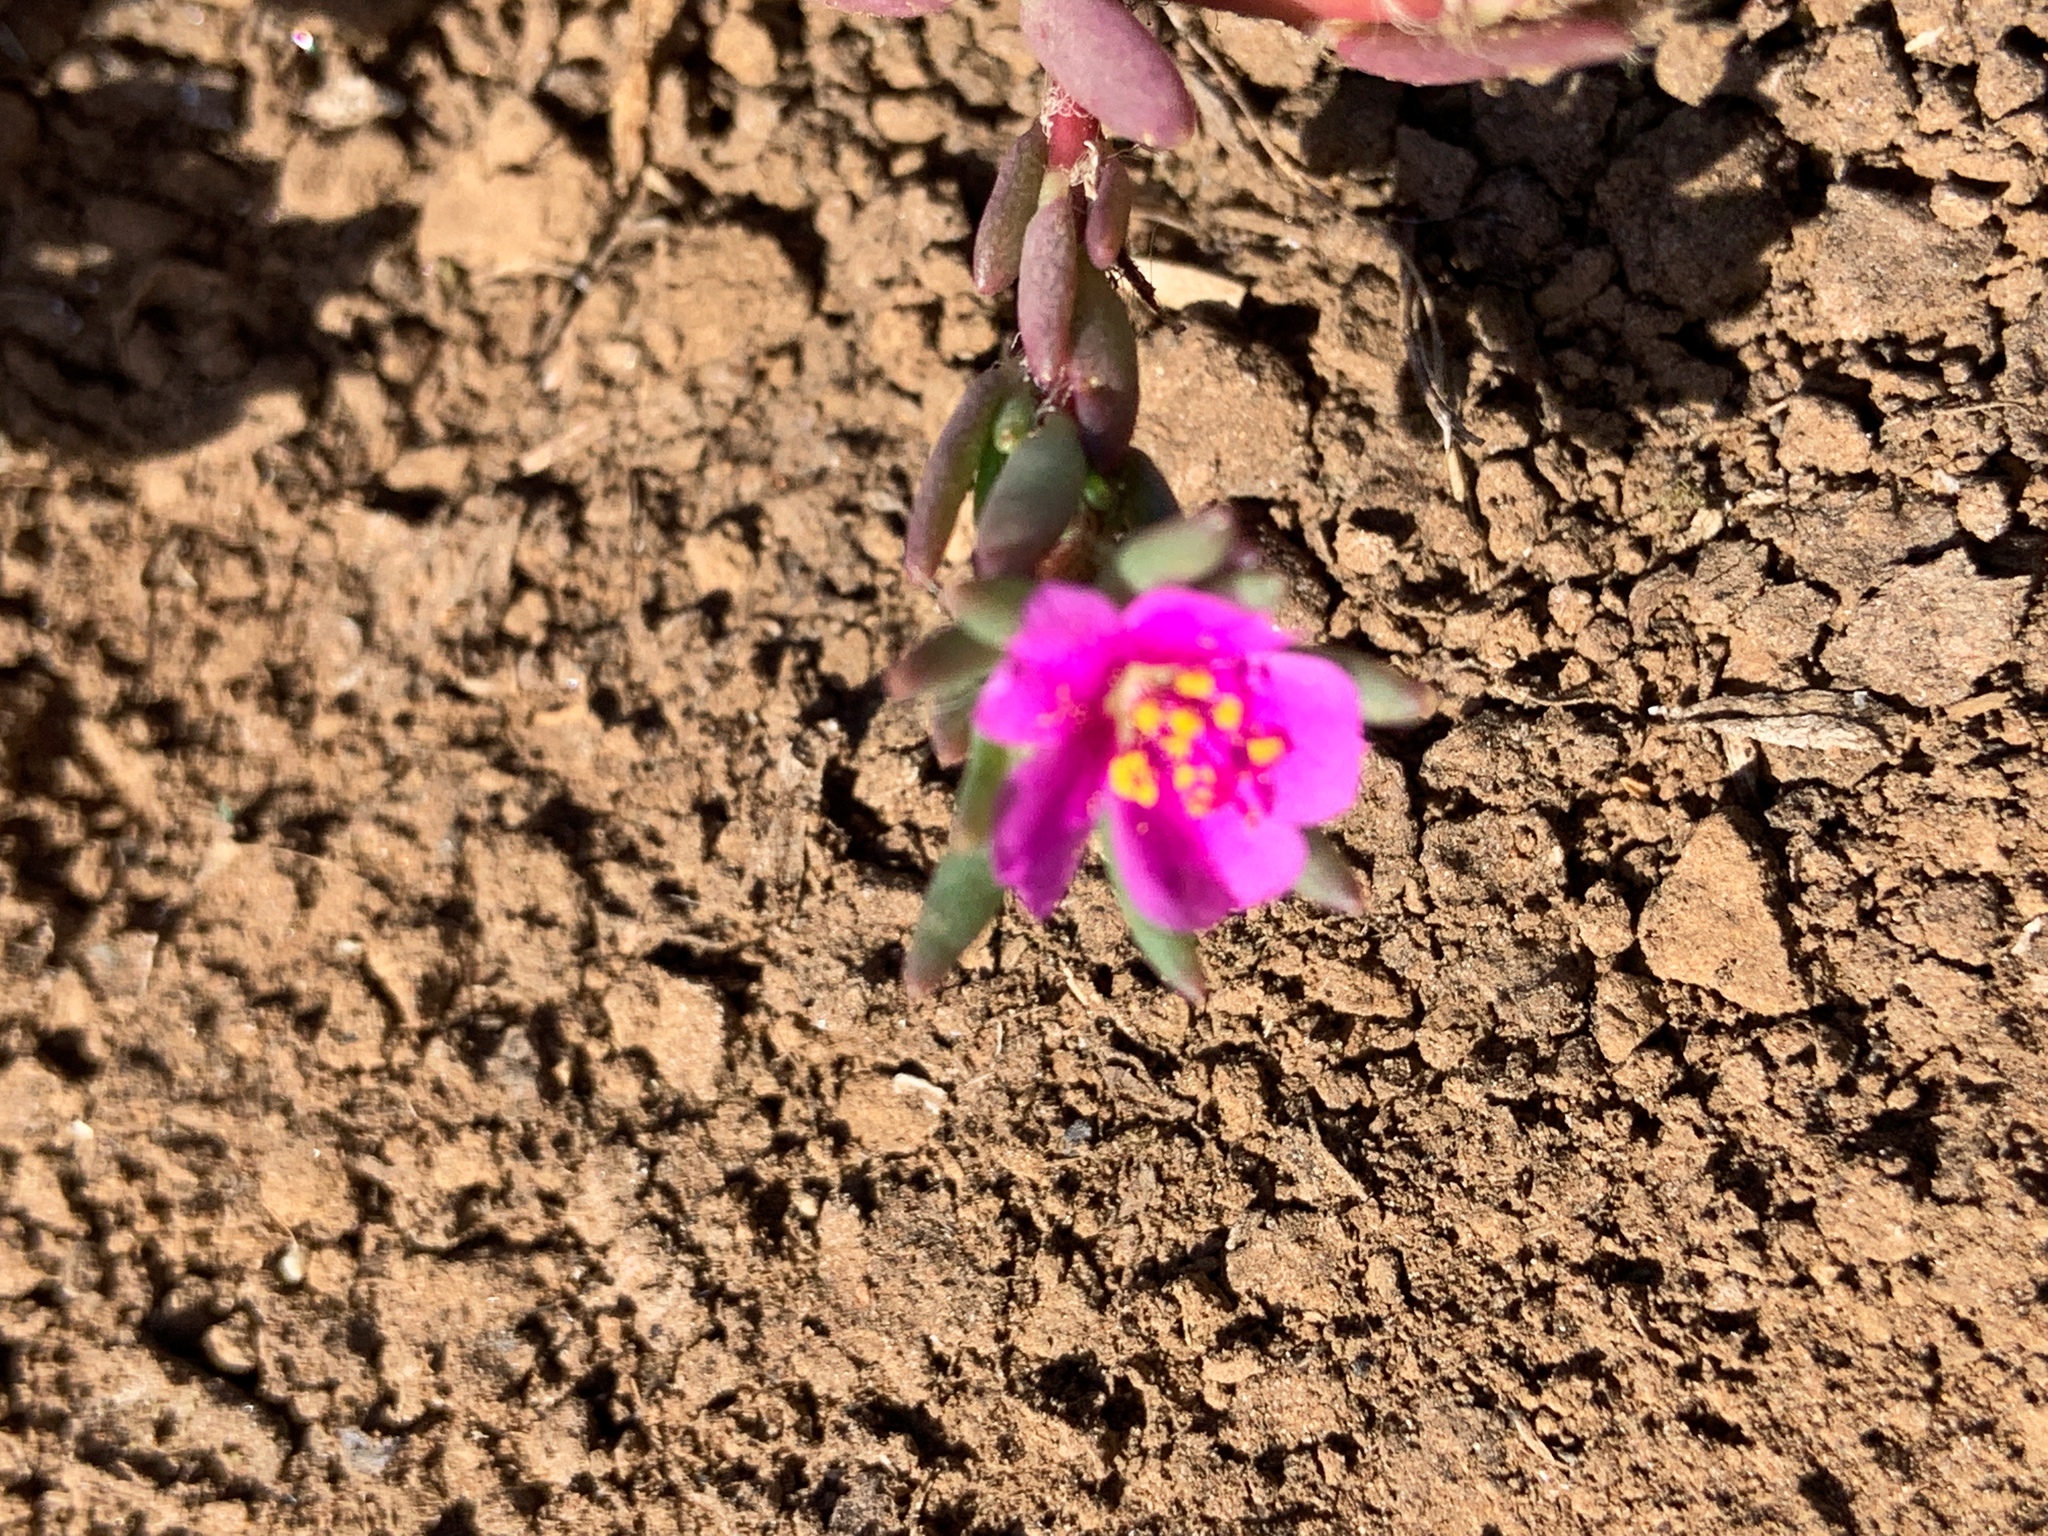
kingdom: Plantae
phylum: Tracheophyta
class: Magnoliopsida
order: Caryophyllales
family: Portulacaceae
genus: Portulaca
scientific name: Portulaca pilosa
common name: Kiss me quick
